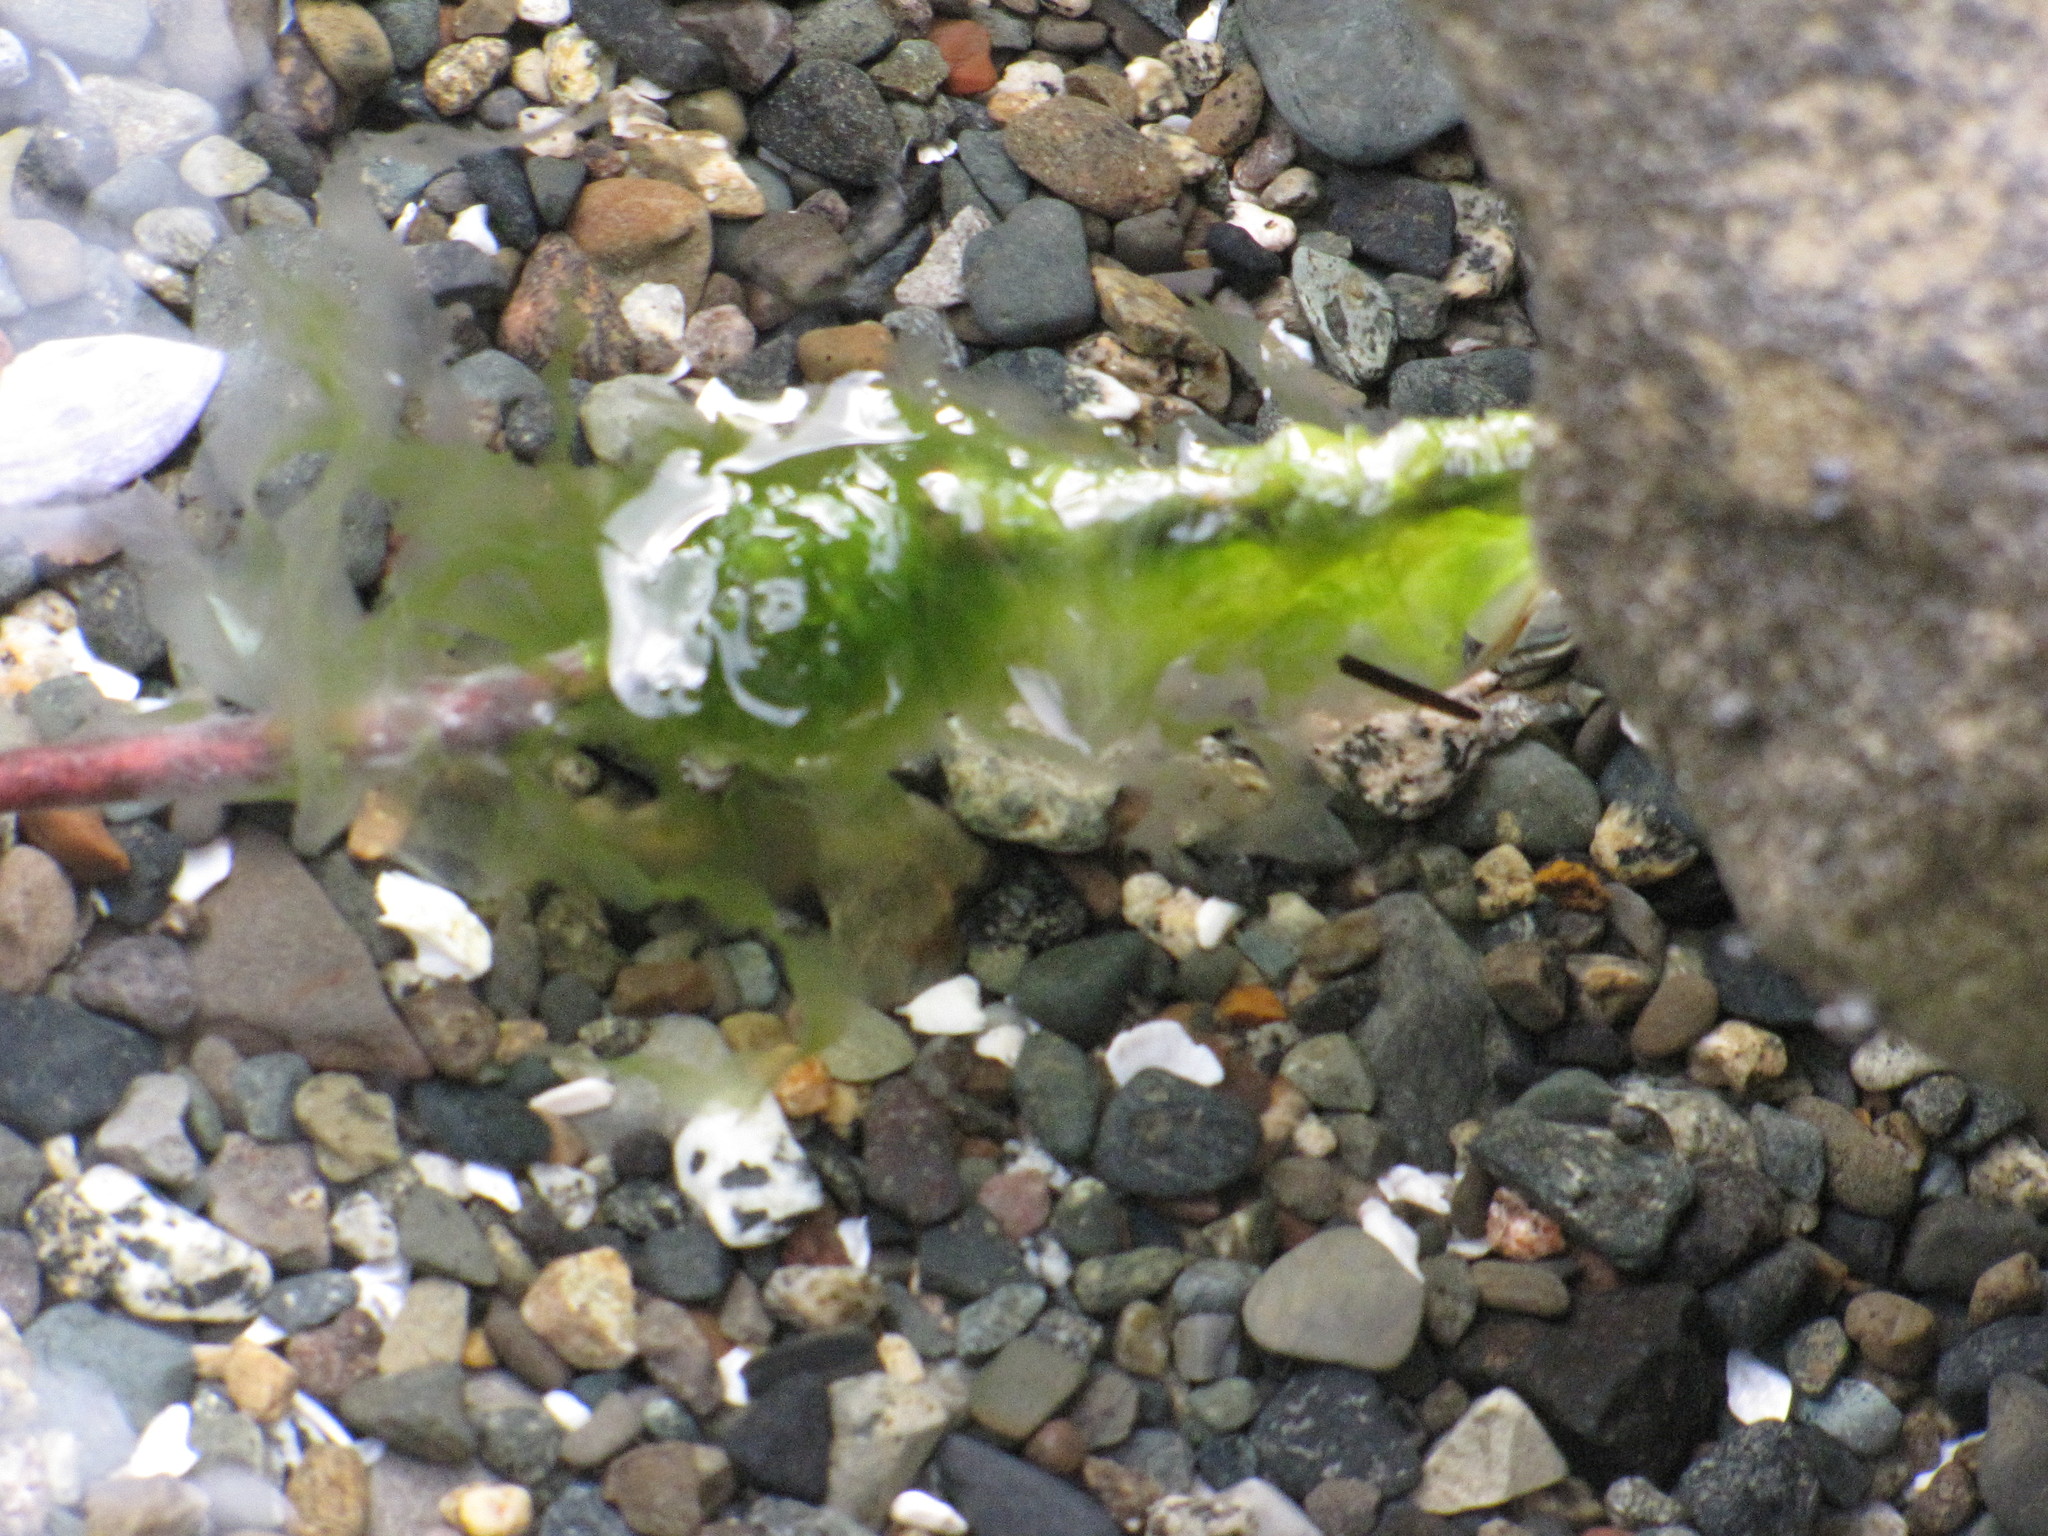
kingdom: Plantae
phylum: Chlorophyta
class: Ulvophyceae
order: Ulvales
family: Ulvaceae
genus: Ulva
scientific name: Ulva lactuca
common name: Sea lettuce
